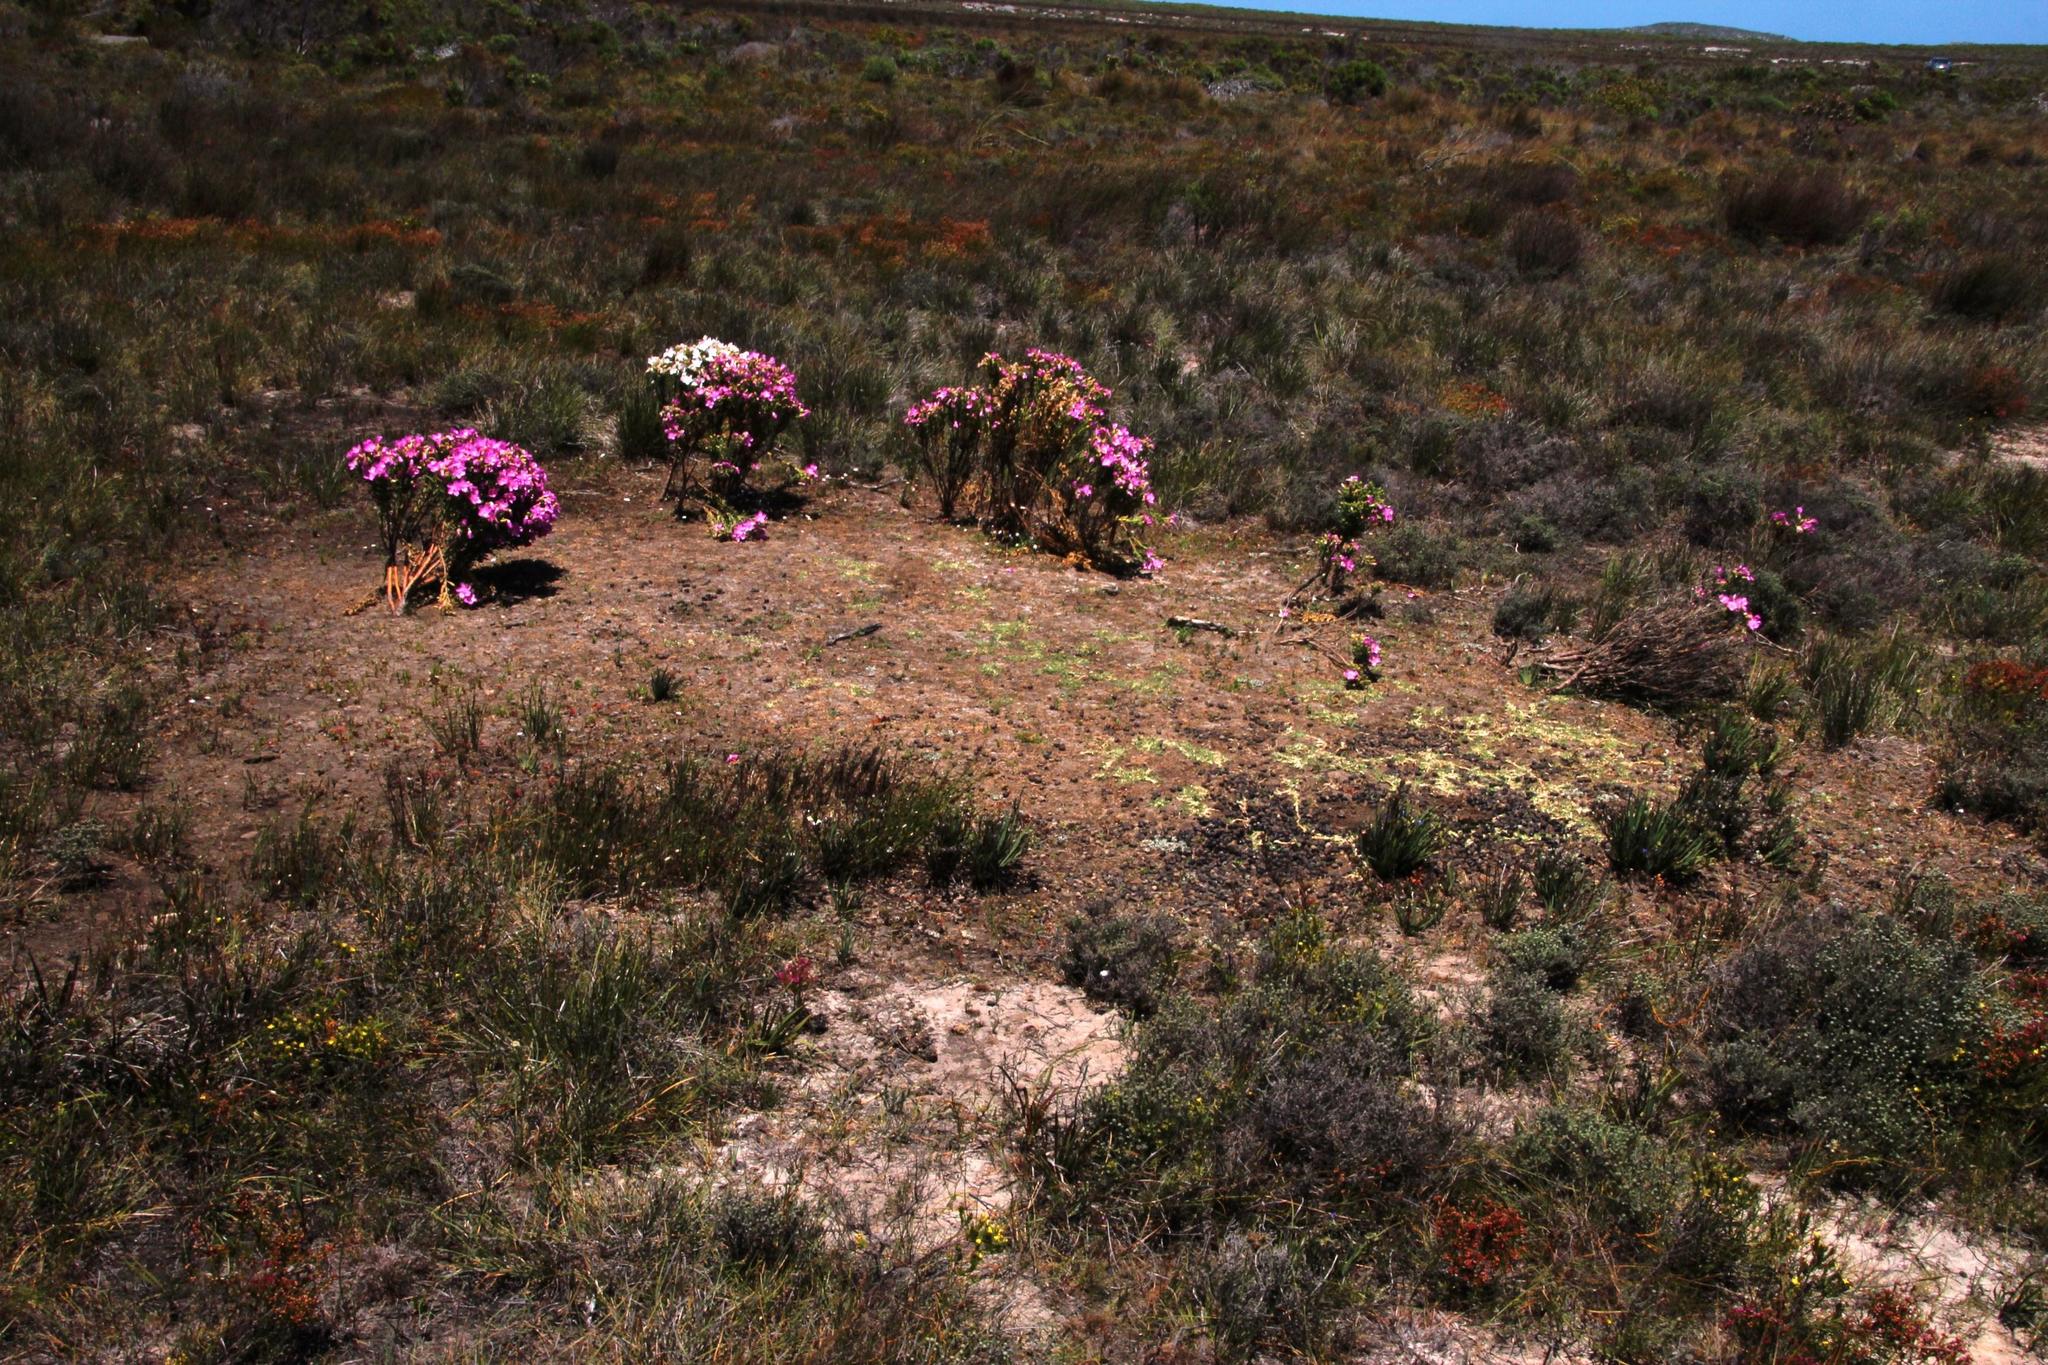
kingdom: Animalia
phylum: Chordata
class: Mammalia
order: Artiodactyla
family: Bovidae
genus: Damaliscus
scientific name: Damaliscus pygargus
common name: Bontebok
